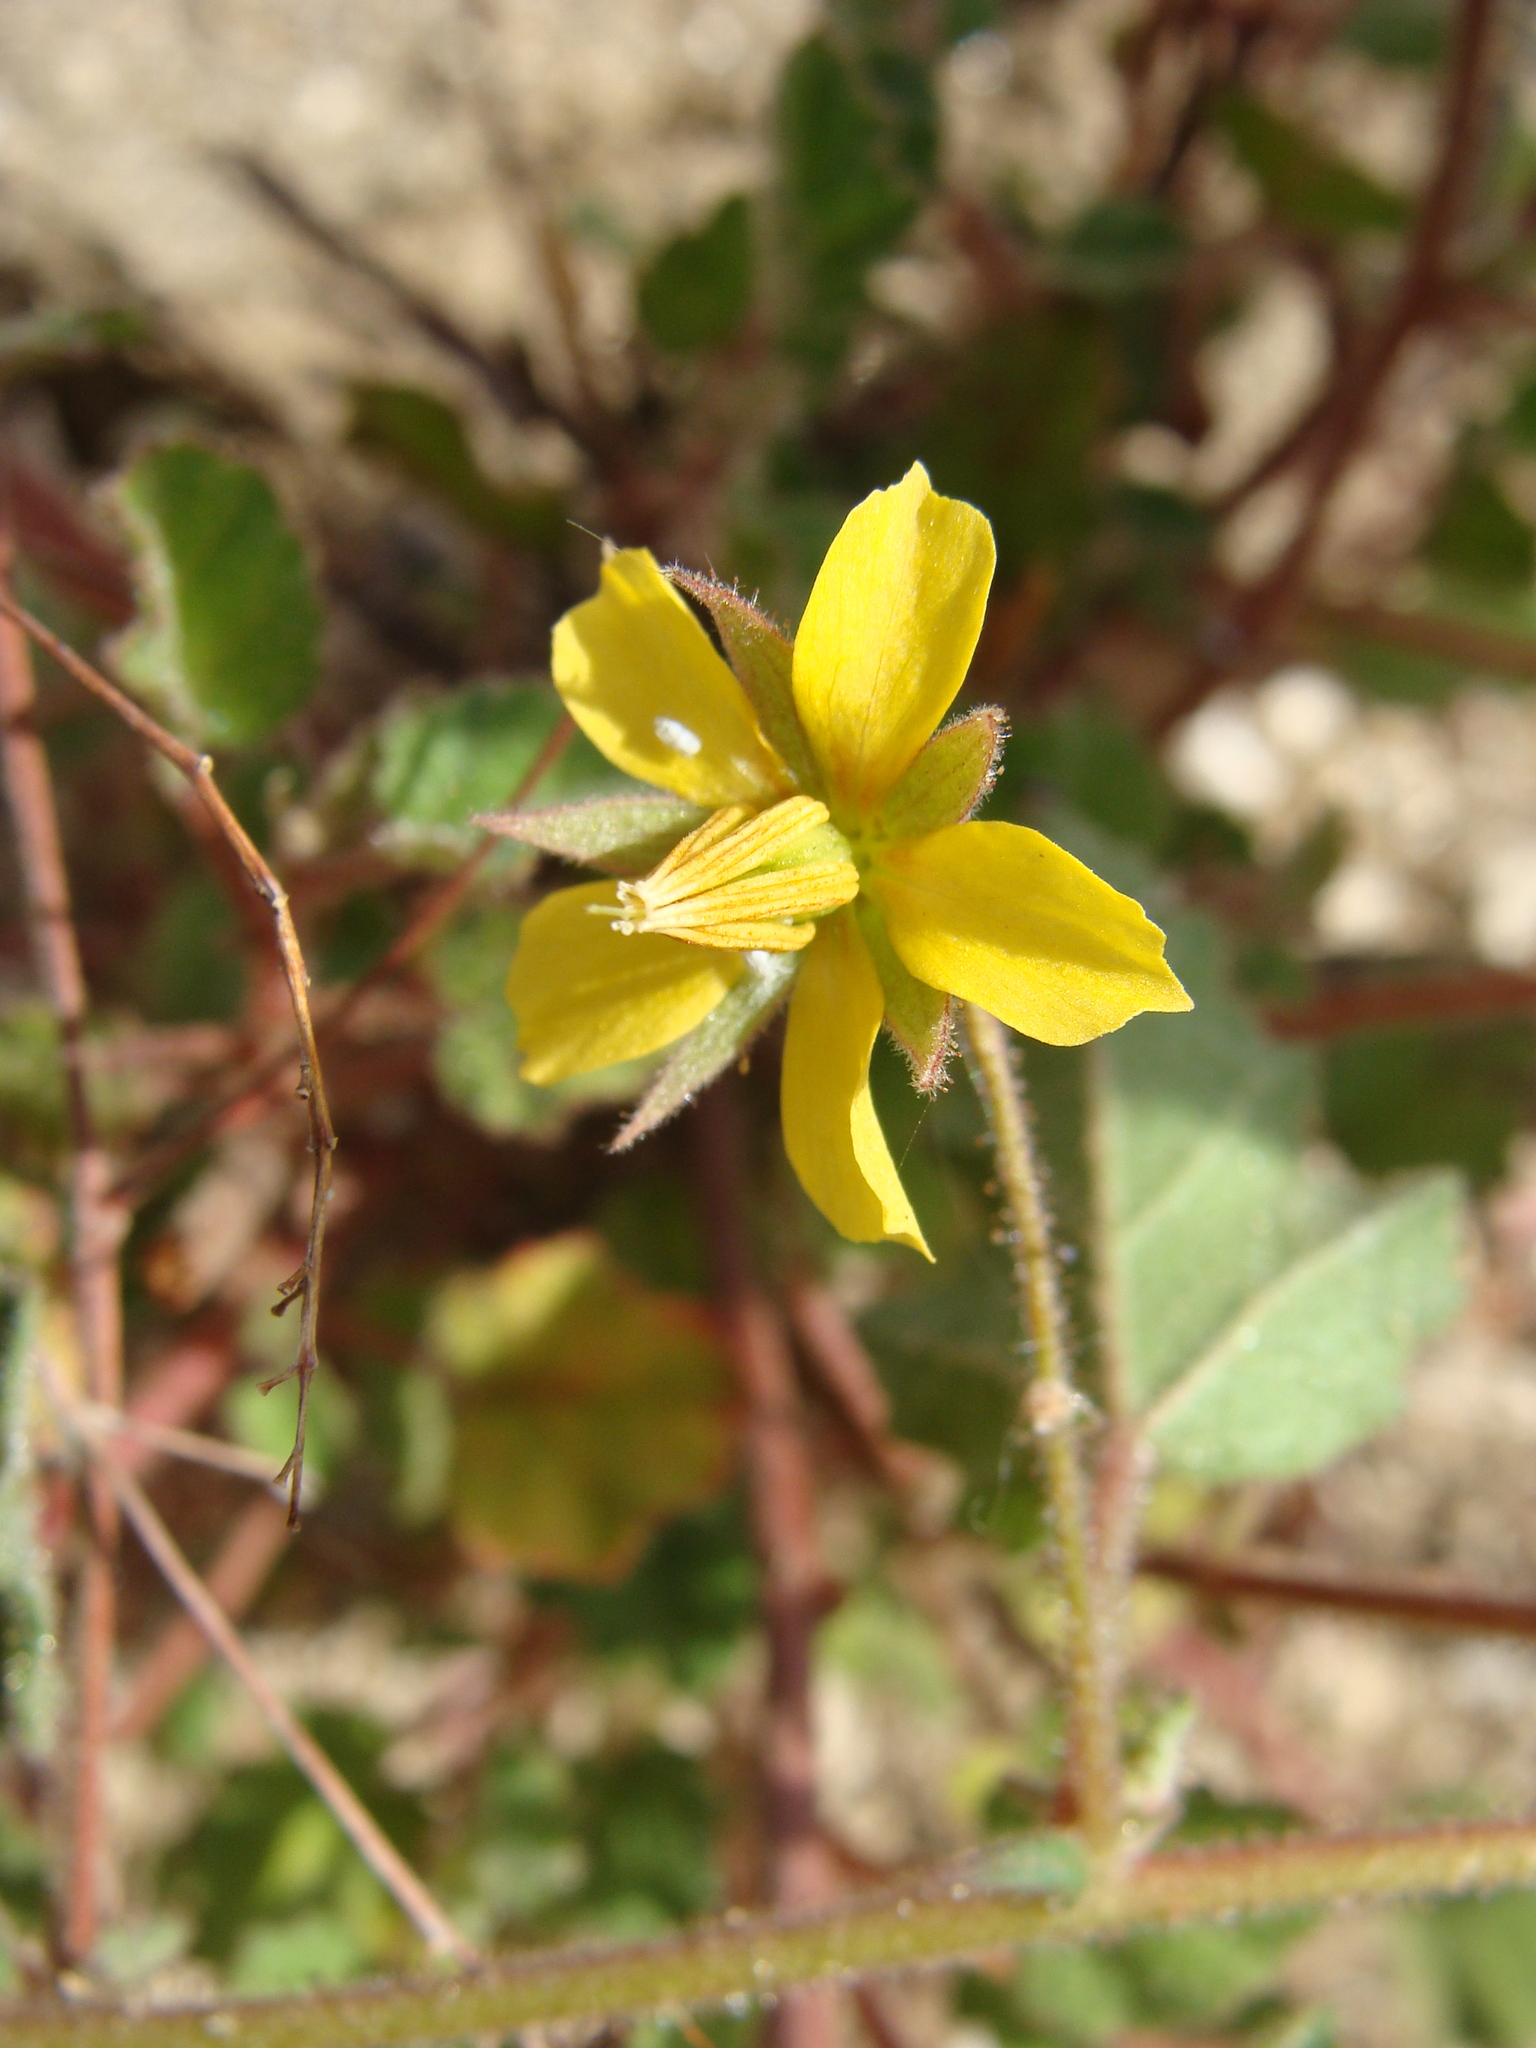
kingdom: Plantae
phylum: Tracheophyta
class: Magnoliopsida
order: Malvales
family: Malvaceae
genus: Hermannia
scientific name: Hermannia palmeri
